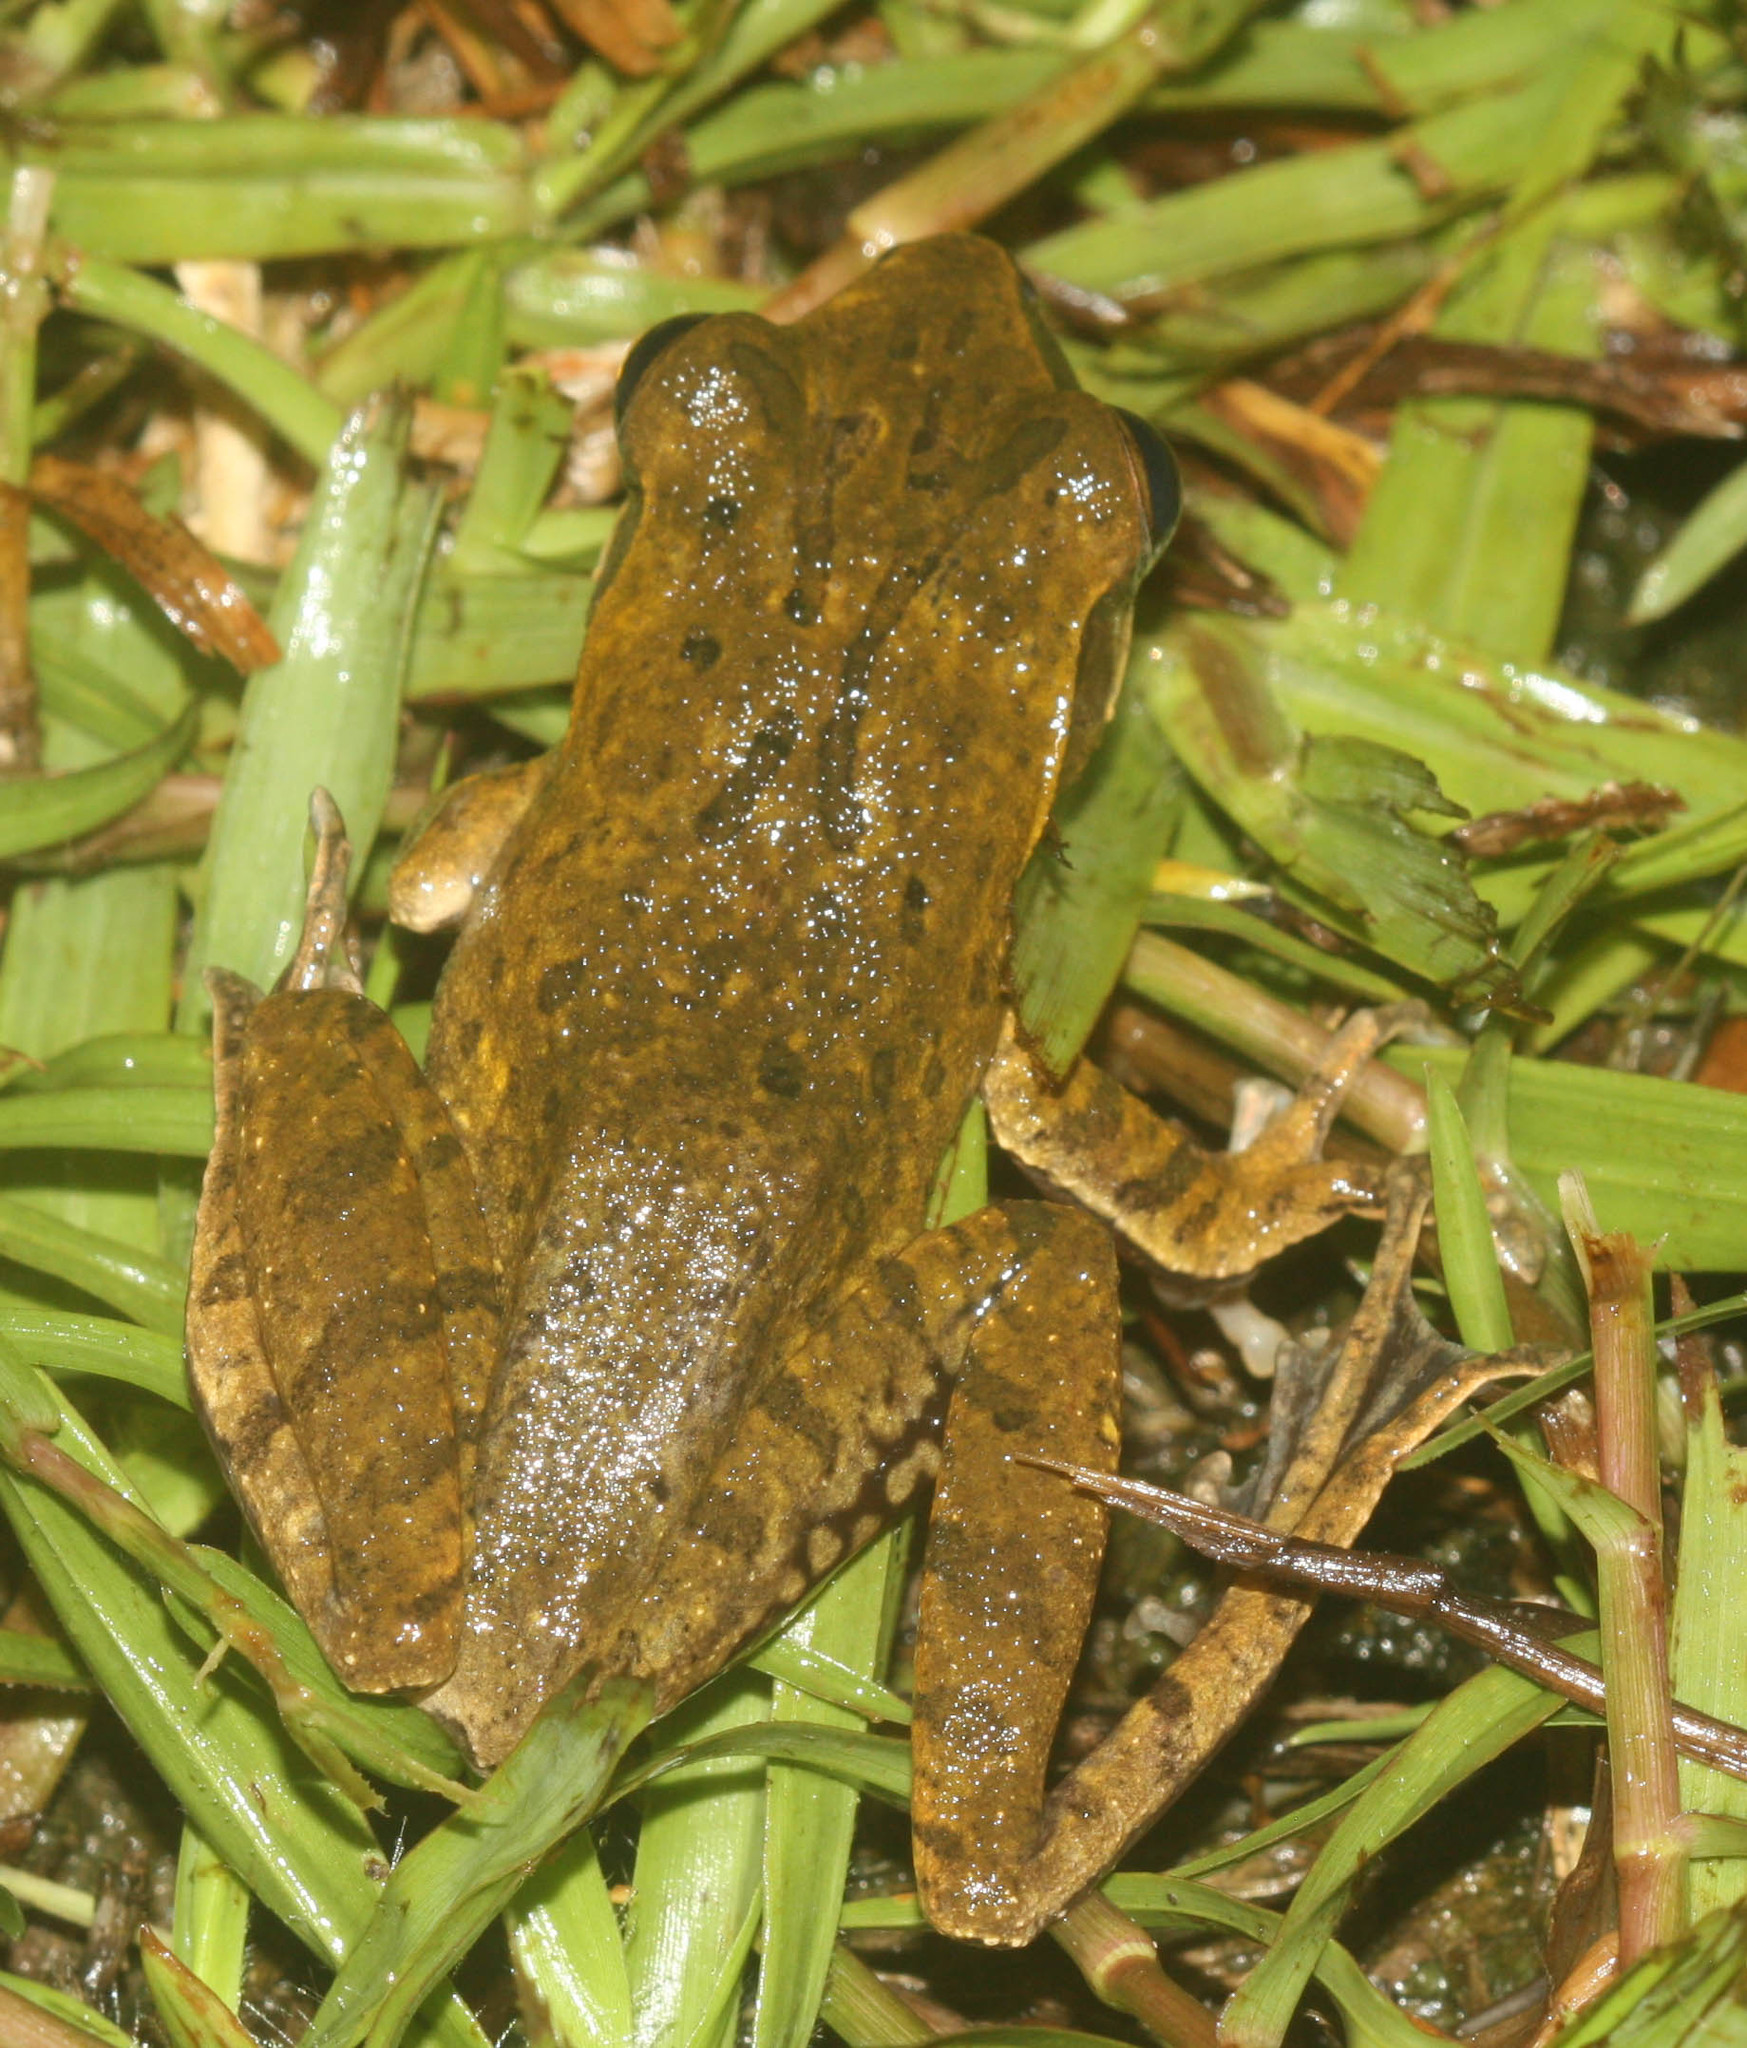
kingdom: Animalia
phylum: Chordata
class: Amphibia
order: Anura
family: Rhacophoridae
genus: Polypedates
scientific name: Polypedates megacephalus
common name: Hong kong whipping frog
